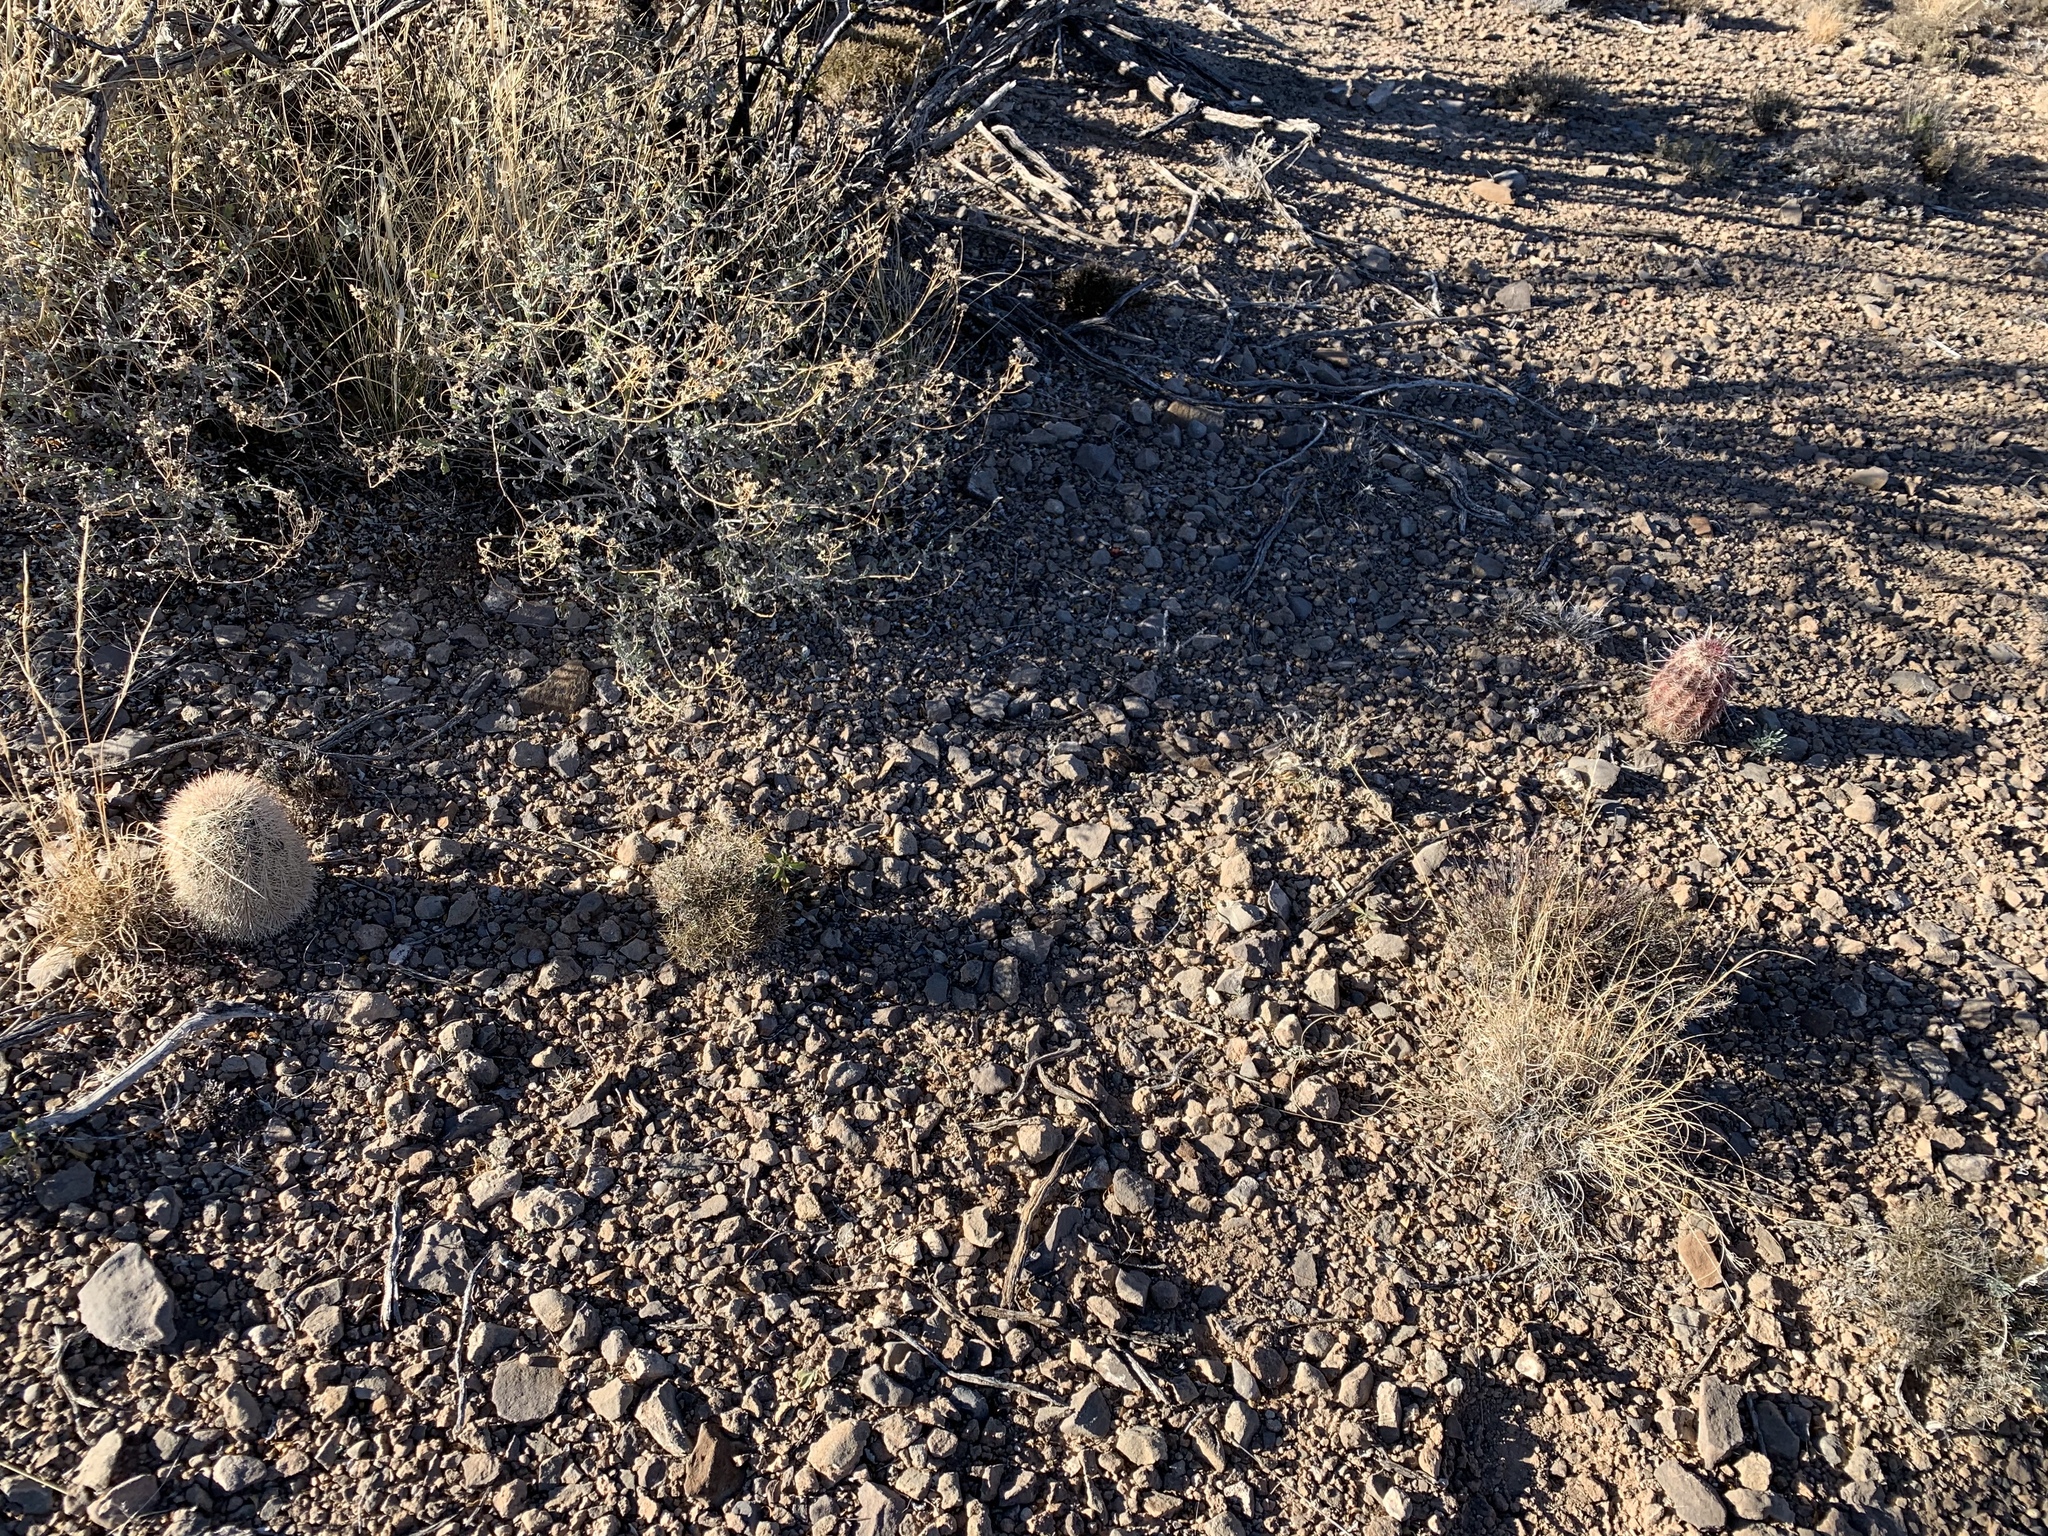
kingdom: Plantae
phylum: Tracheophyta
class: Magnoliopsida
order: Caryophyllales
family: Cactaceae
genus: Echinocereus
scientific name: Echinocereus viridiflorus
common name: Nylon hedgehog cactus
